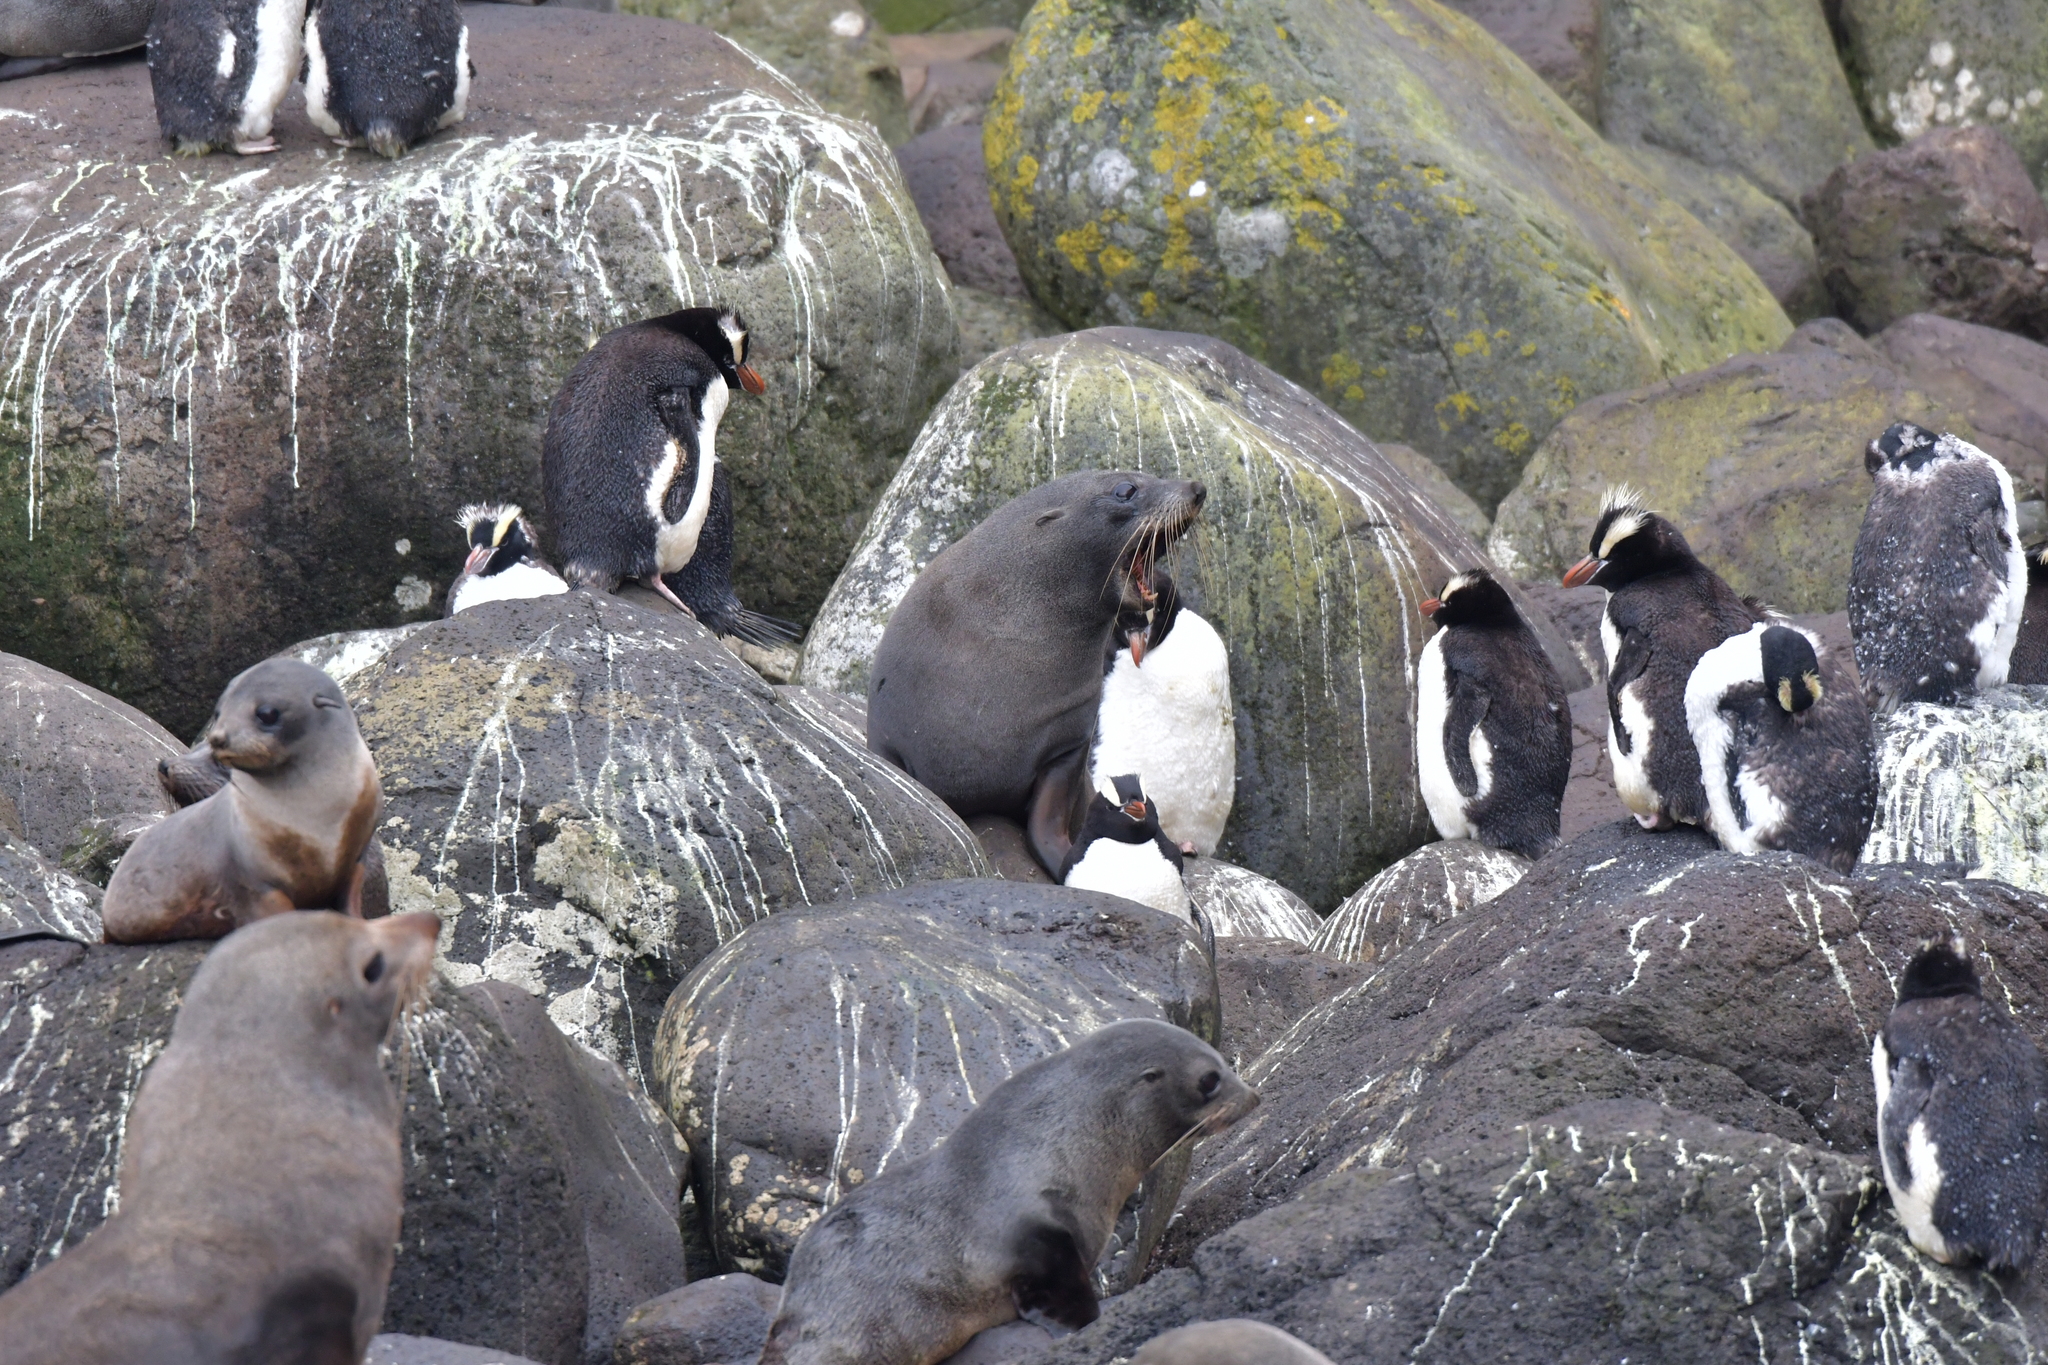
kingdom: Animalia
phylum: Chordata
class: Mammalia
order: Carnivora
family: Otariidae
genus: Arctocephalus
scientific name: Arctocephalus forsteri
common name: New zealand fur seal
